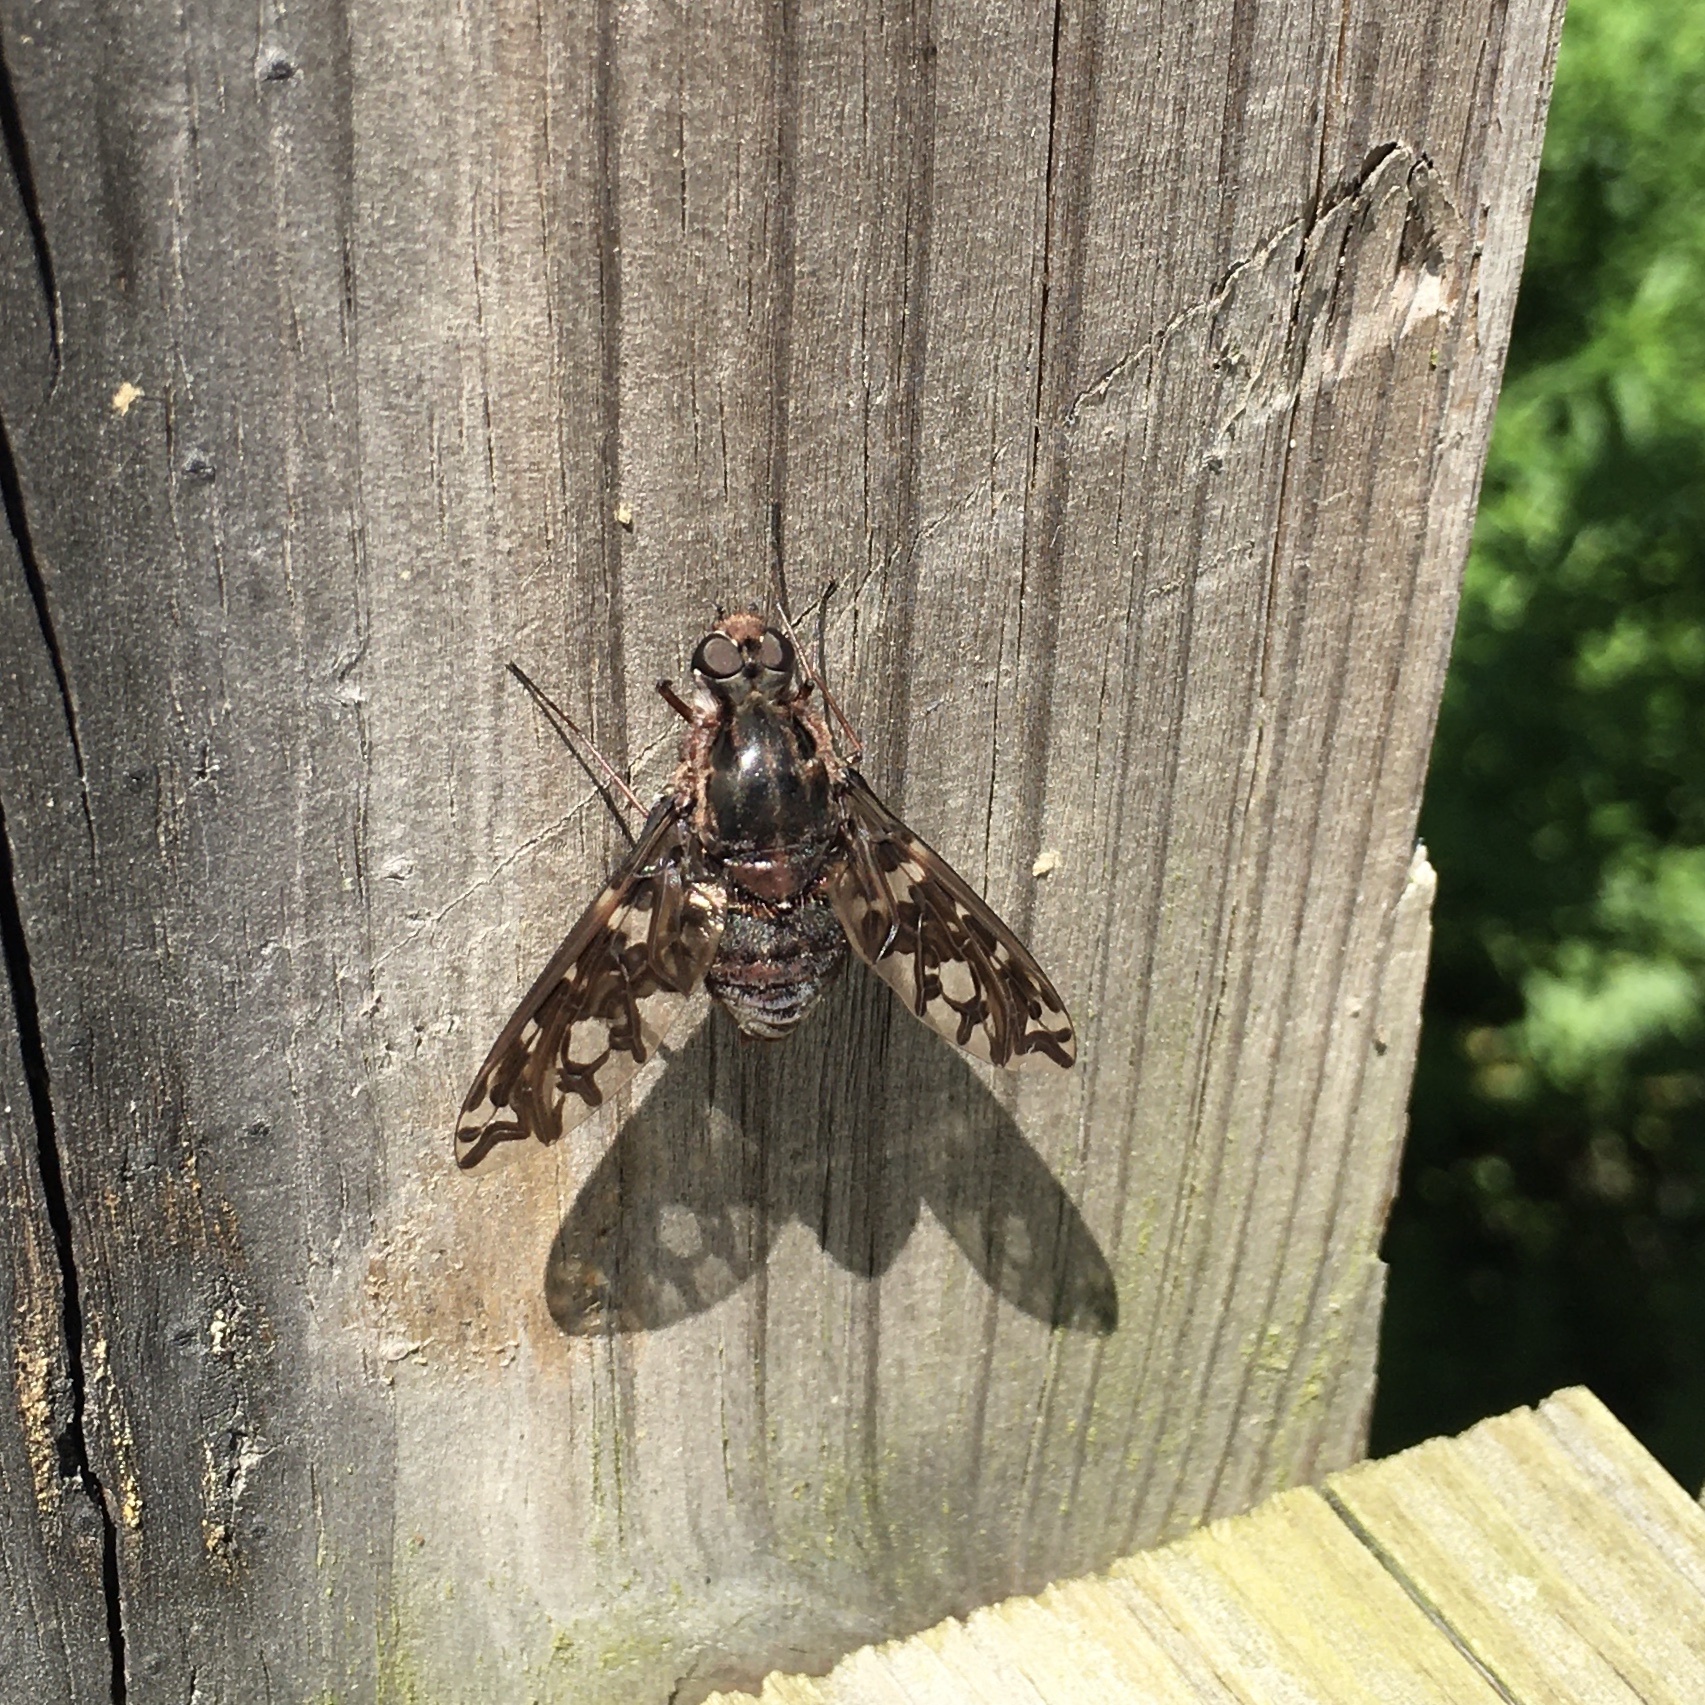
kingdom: Animalia
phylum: Arthropoda
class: Insecta
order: Diptera
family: Bombyliidae
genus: Xenox
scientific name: Xenox tigrinus
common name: Tiger bee fly
